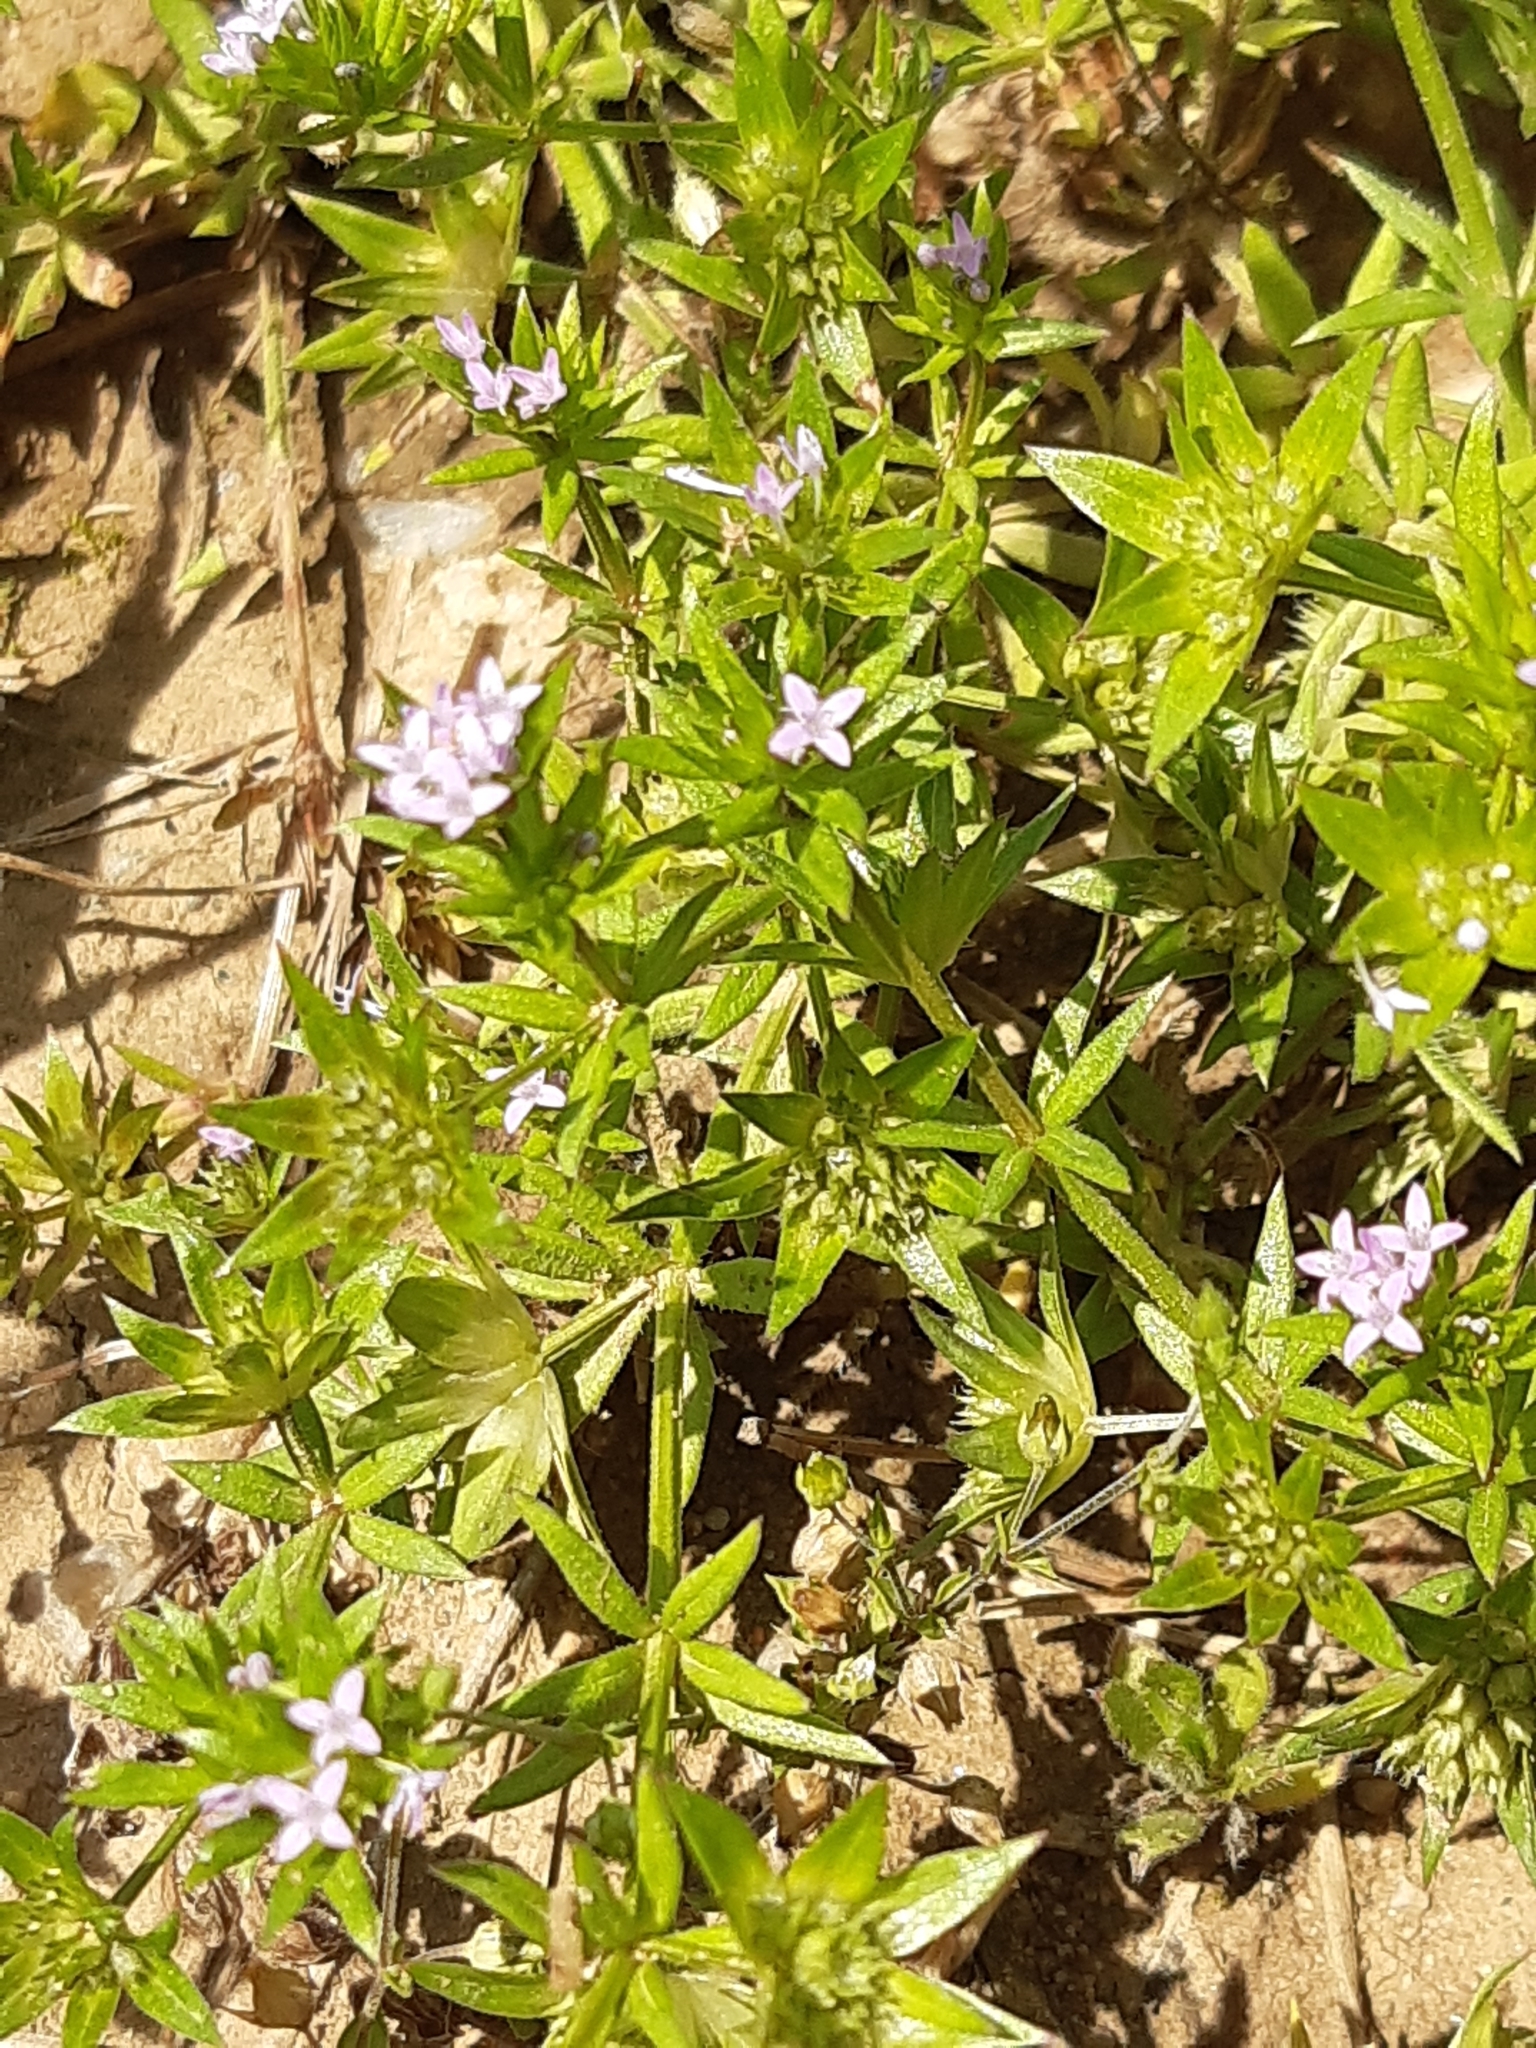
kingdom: Plantae
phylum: Tracheophyta
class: Magnoliopsida
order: Gentianales
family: Rubiaceae
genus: Sherardia
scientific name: Sherardia arvensis
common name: Field madder
